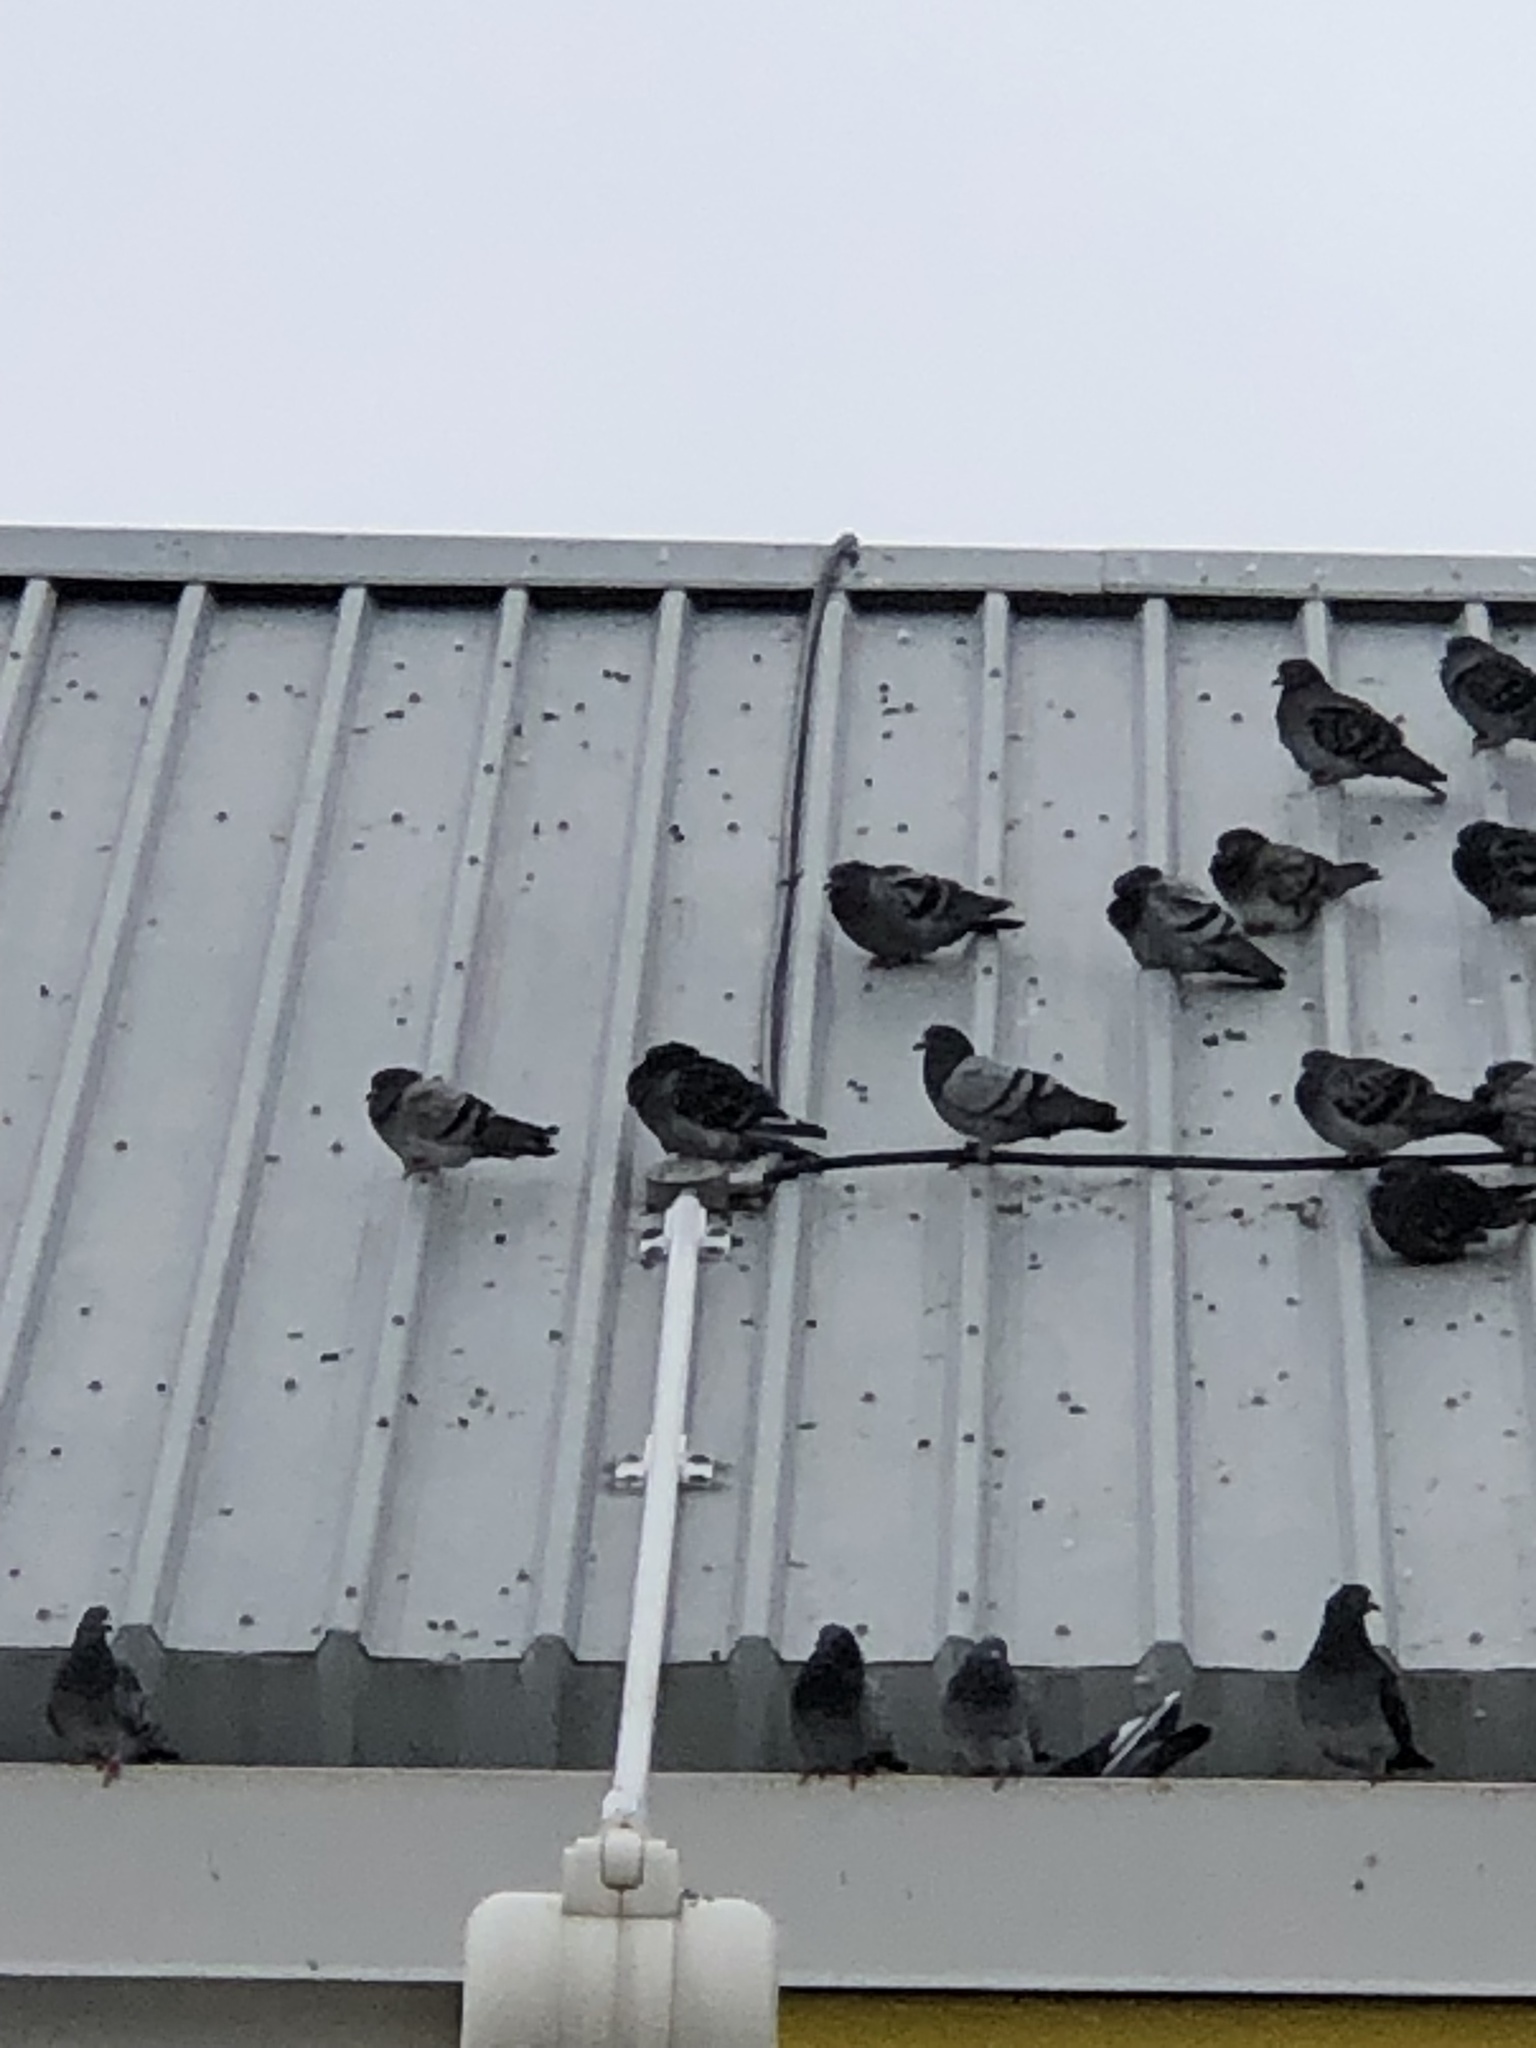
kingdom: Animalia
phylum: Chordata
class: Aves
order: Columbiformes
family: Columbidae
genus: Columba
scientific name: Columba livia
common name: Rock pigeon
